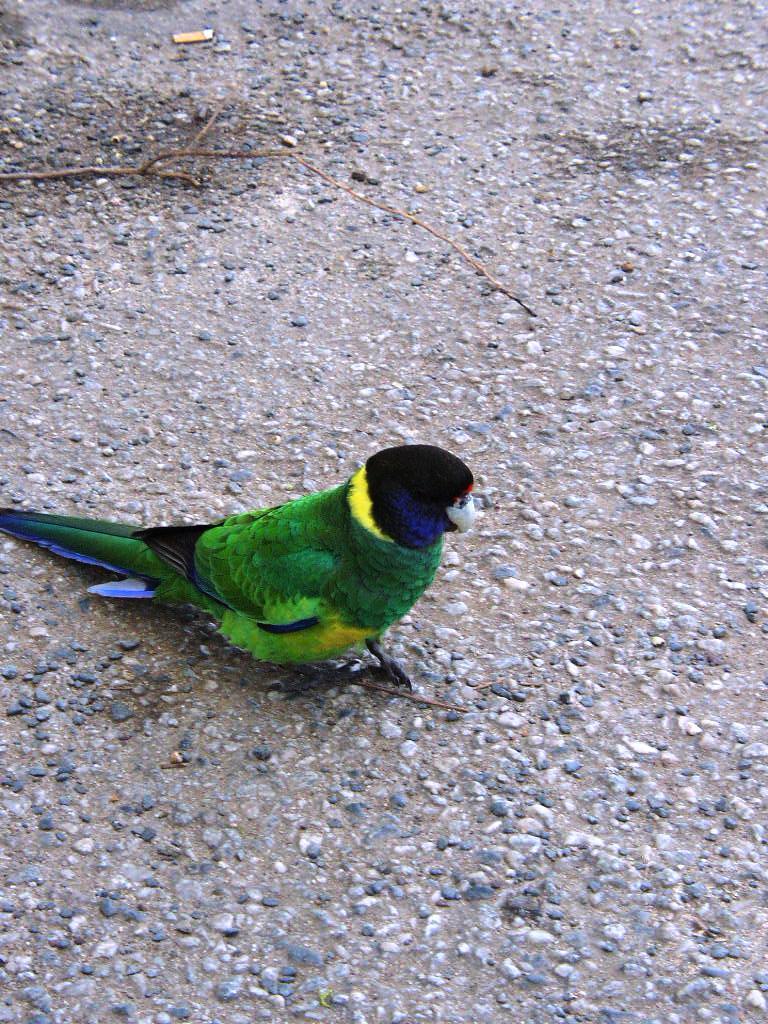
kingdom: Animalia
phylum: Chordata
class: Aves
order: Psittaciformes
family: Psittacidae
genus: Barnardius
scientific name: Barnardius zonarius
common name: Australian ringneck
